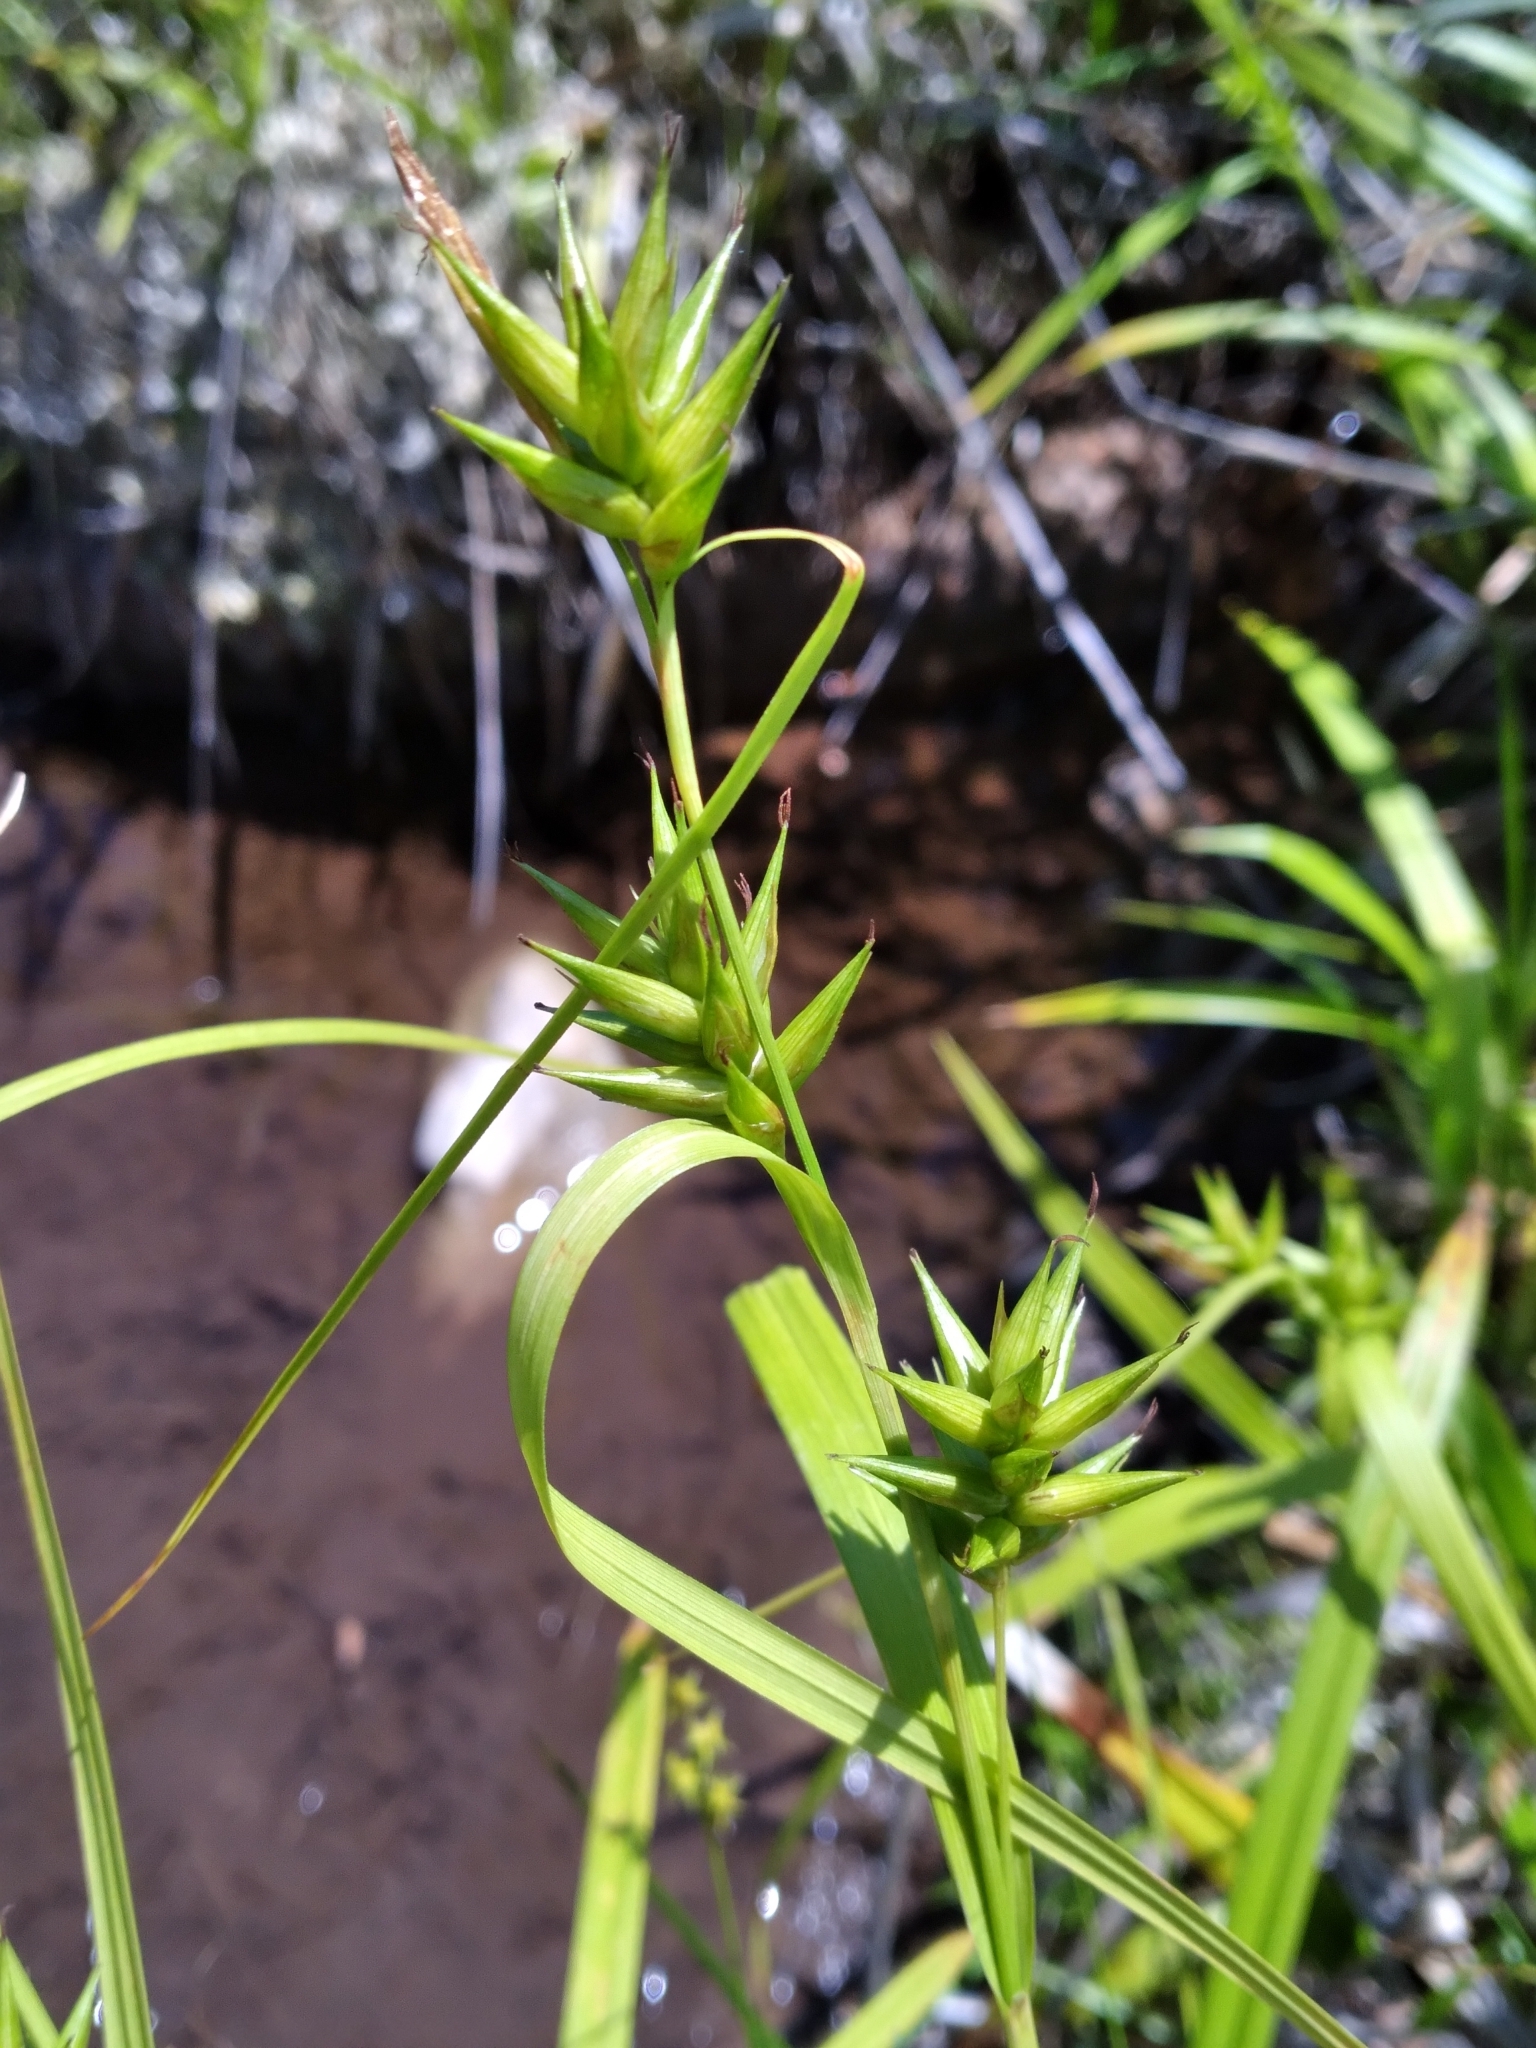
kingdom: Plantae
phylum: Tracheophyta
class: Liliopsida
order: Poales
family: Cyperaceae
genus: Carex
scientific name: Carex folliculata
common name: Northern long sedge
